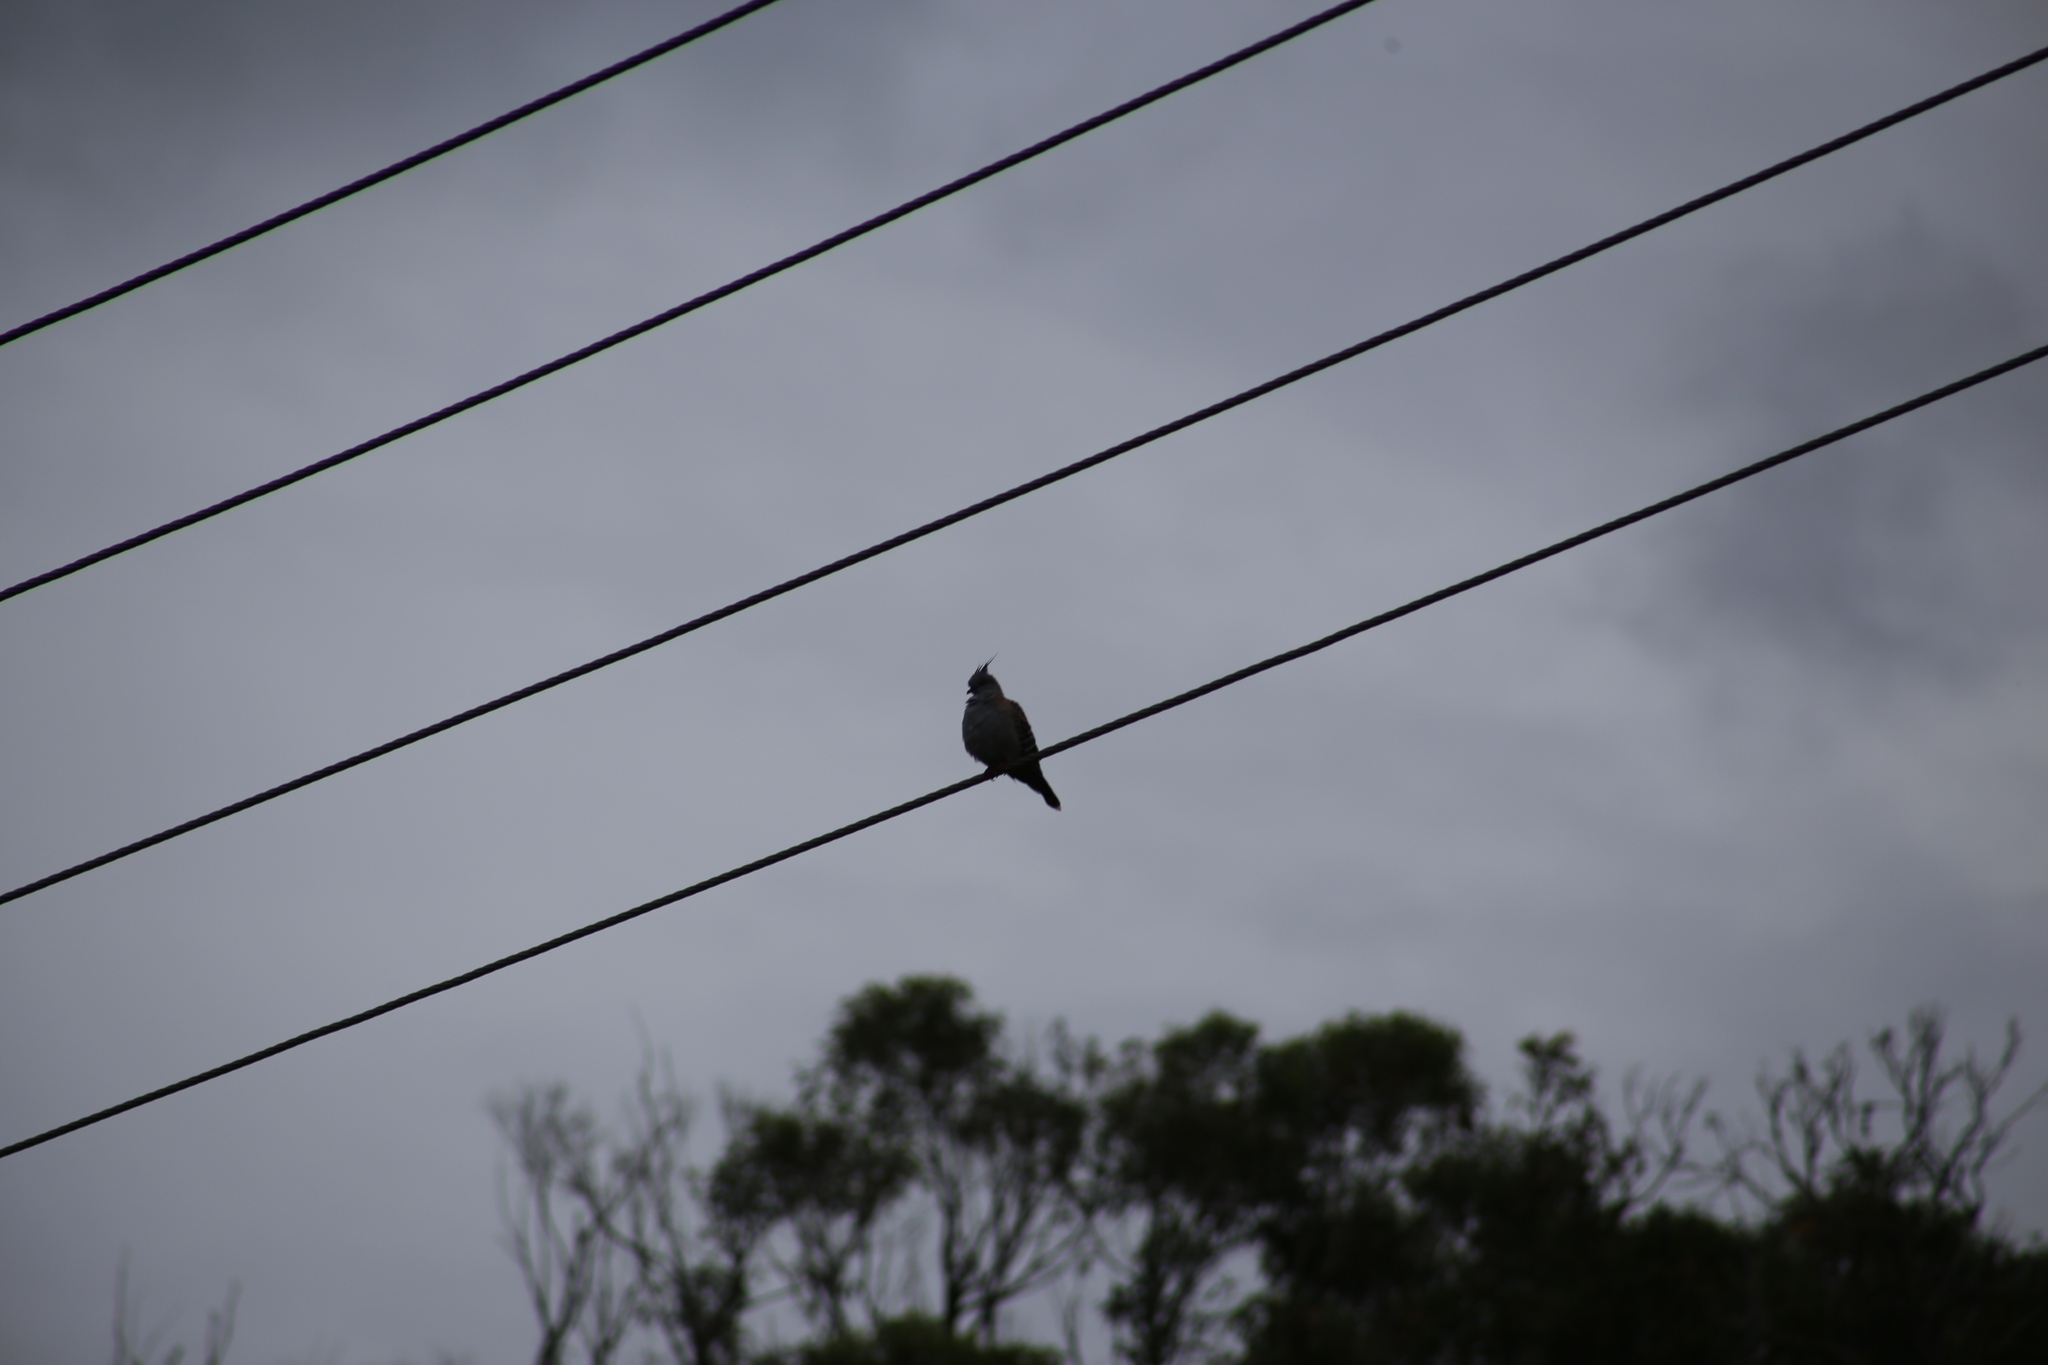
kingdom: Animalia
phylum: Chordata
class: Aves
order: Columbiformes
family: Columbidae
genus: Ocyphaps
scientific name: Ocyphaps lophotes
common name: Crested pigeon
